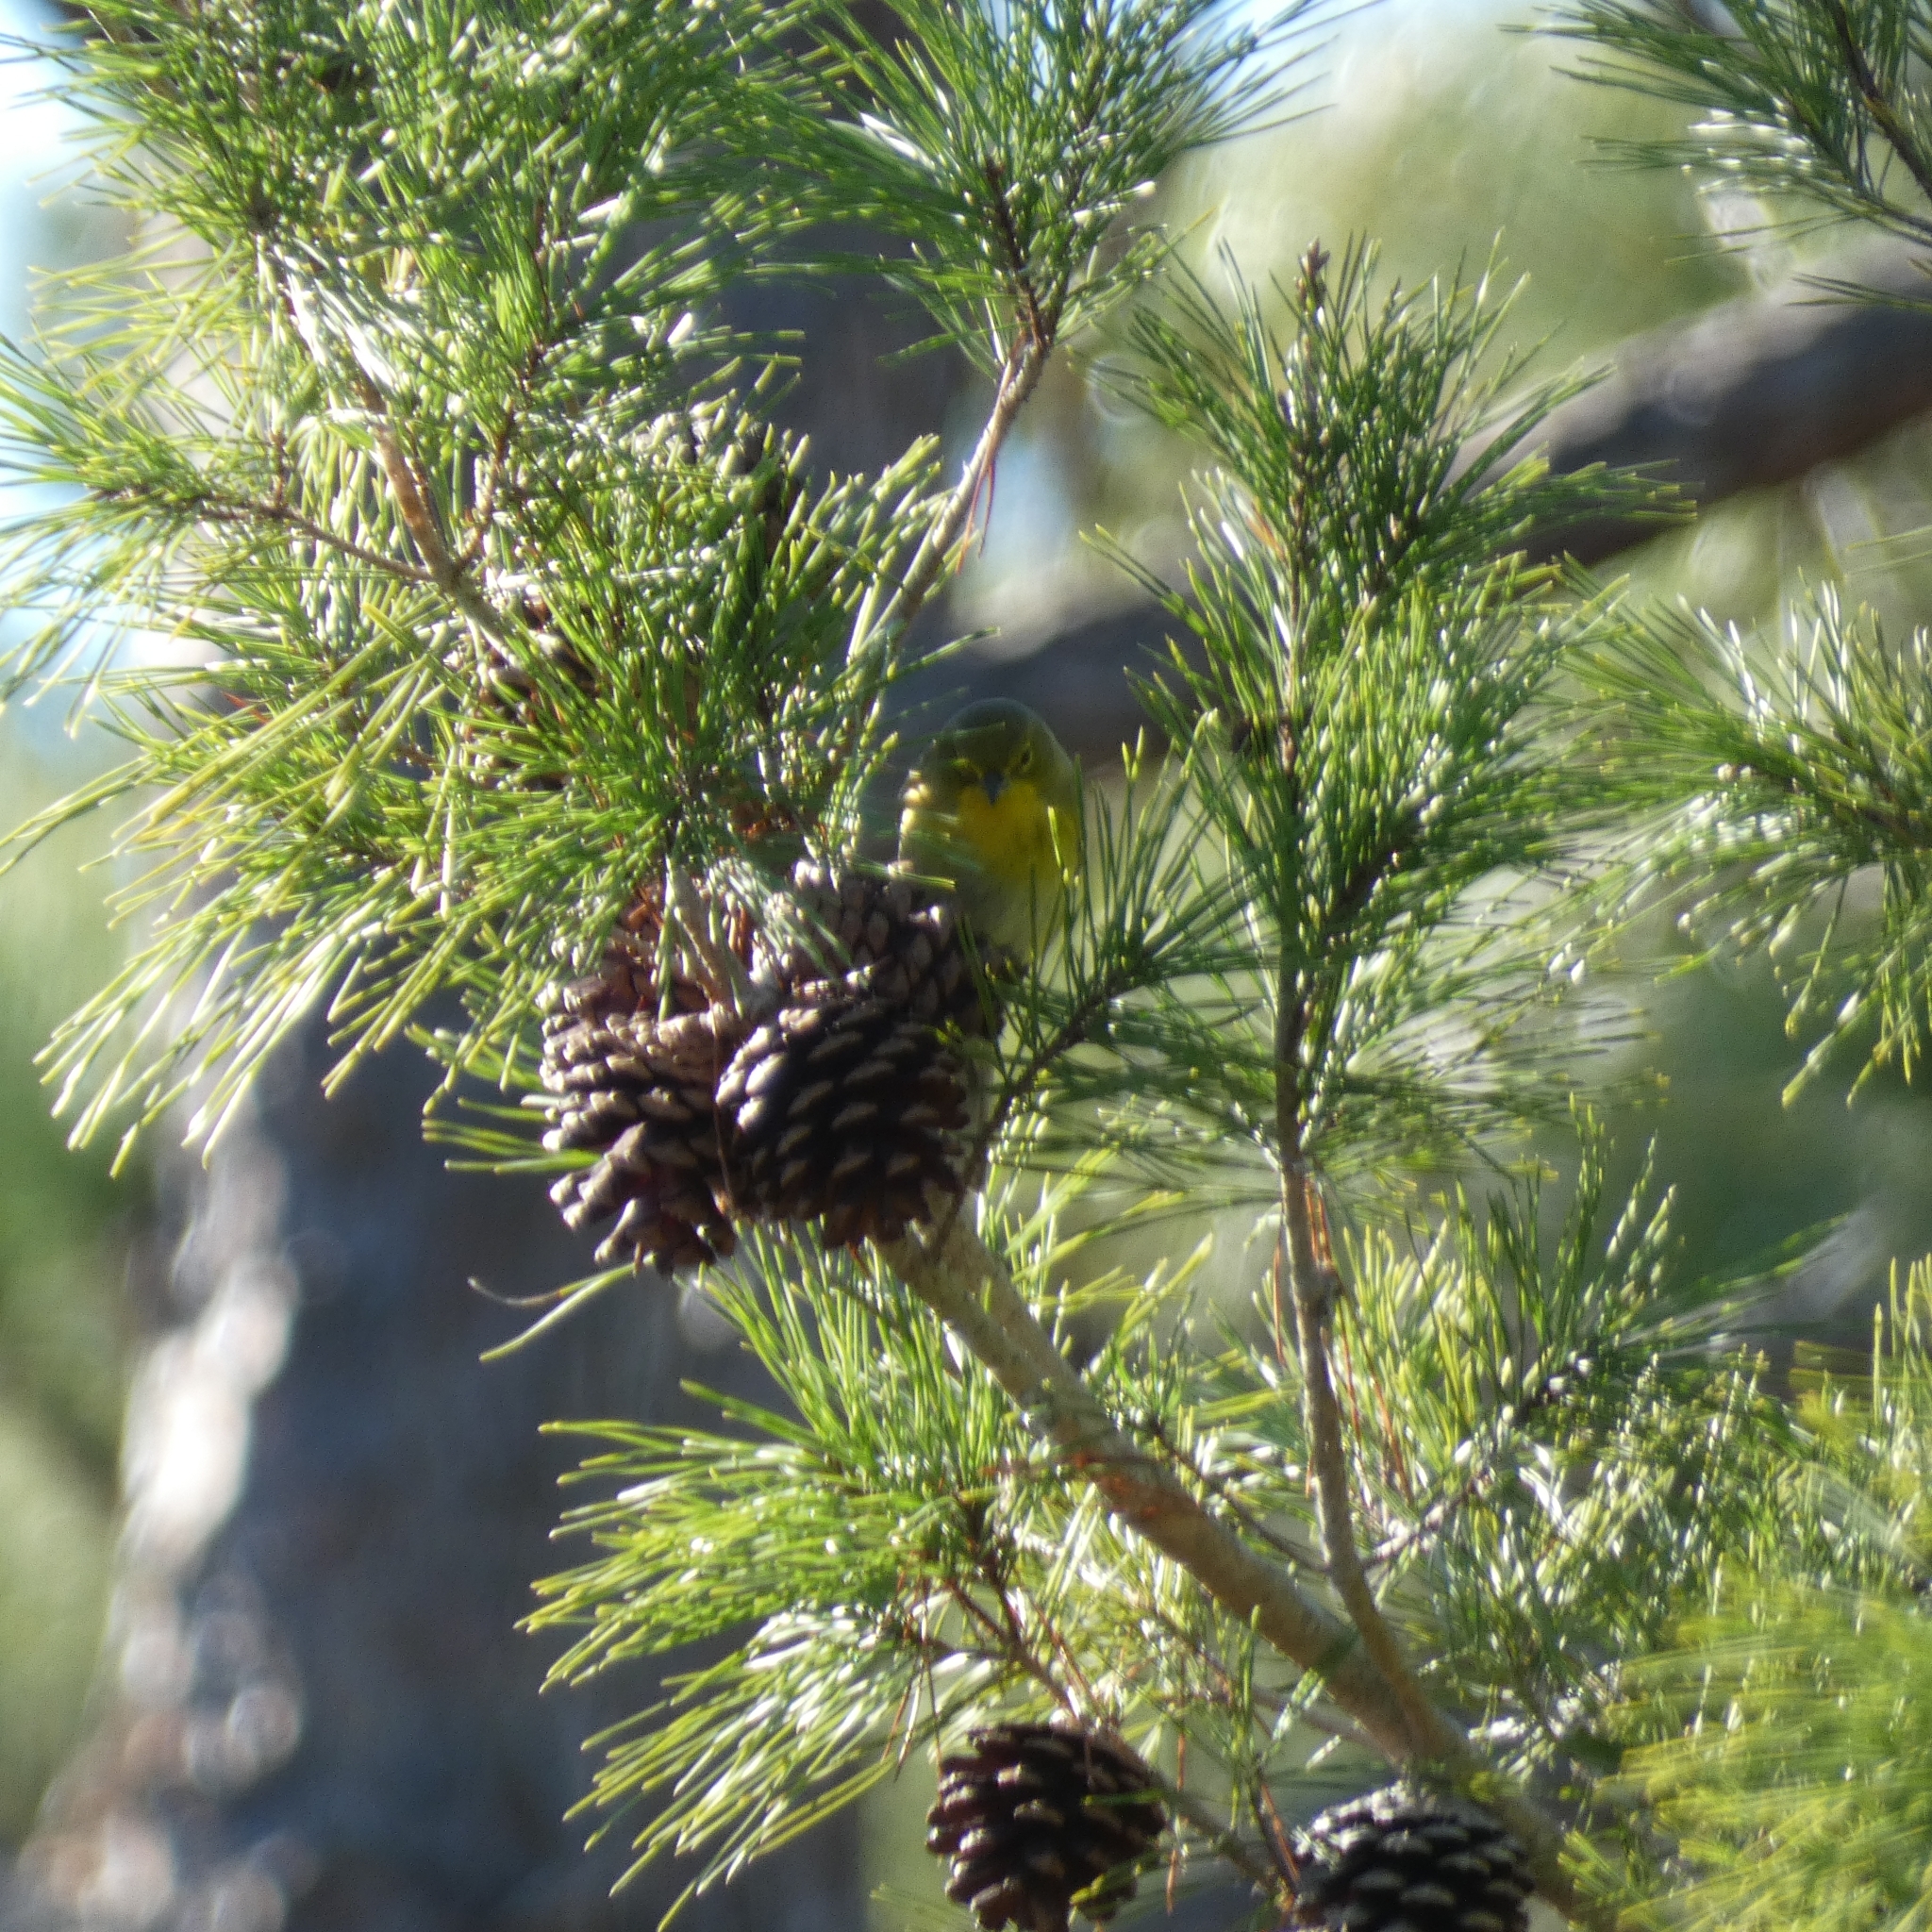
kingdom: Animalia
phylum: Chordata
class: Aves
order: Passeriformes
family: Parulidae
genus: Setophaga
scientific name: Setophaga pinus
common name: Pine warbler
